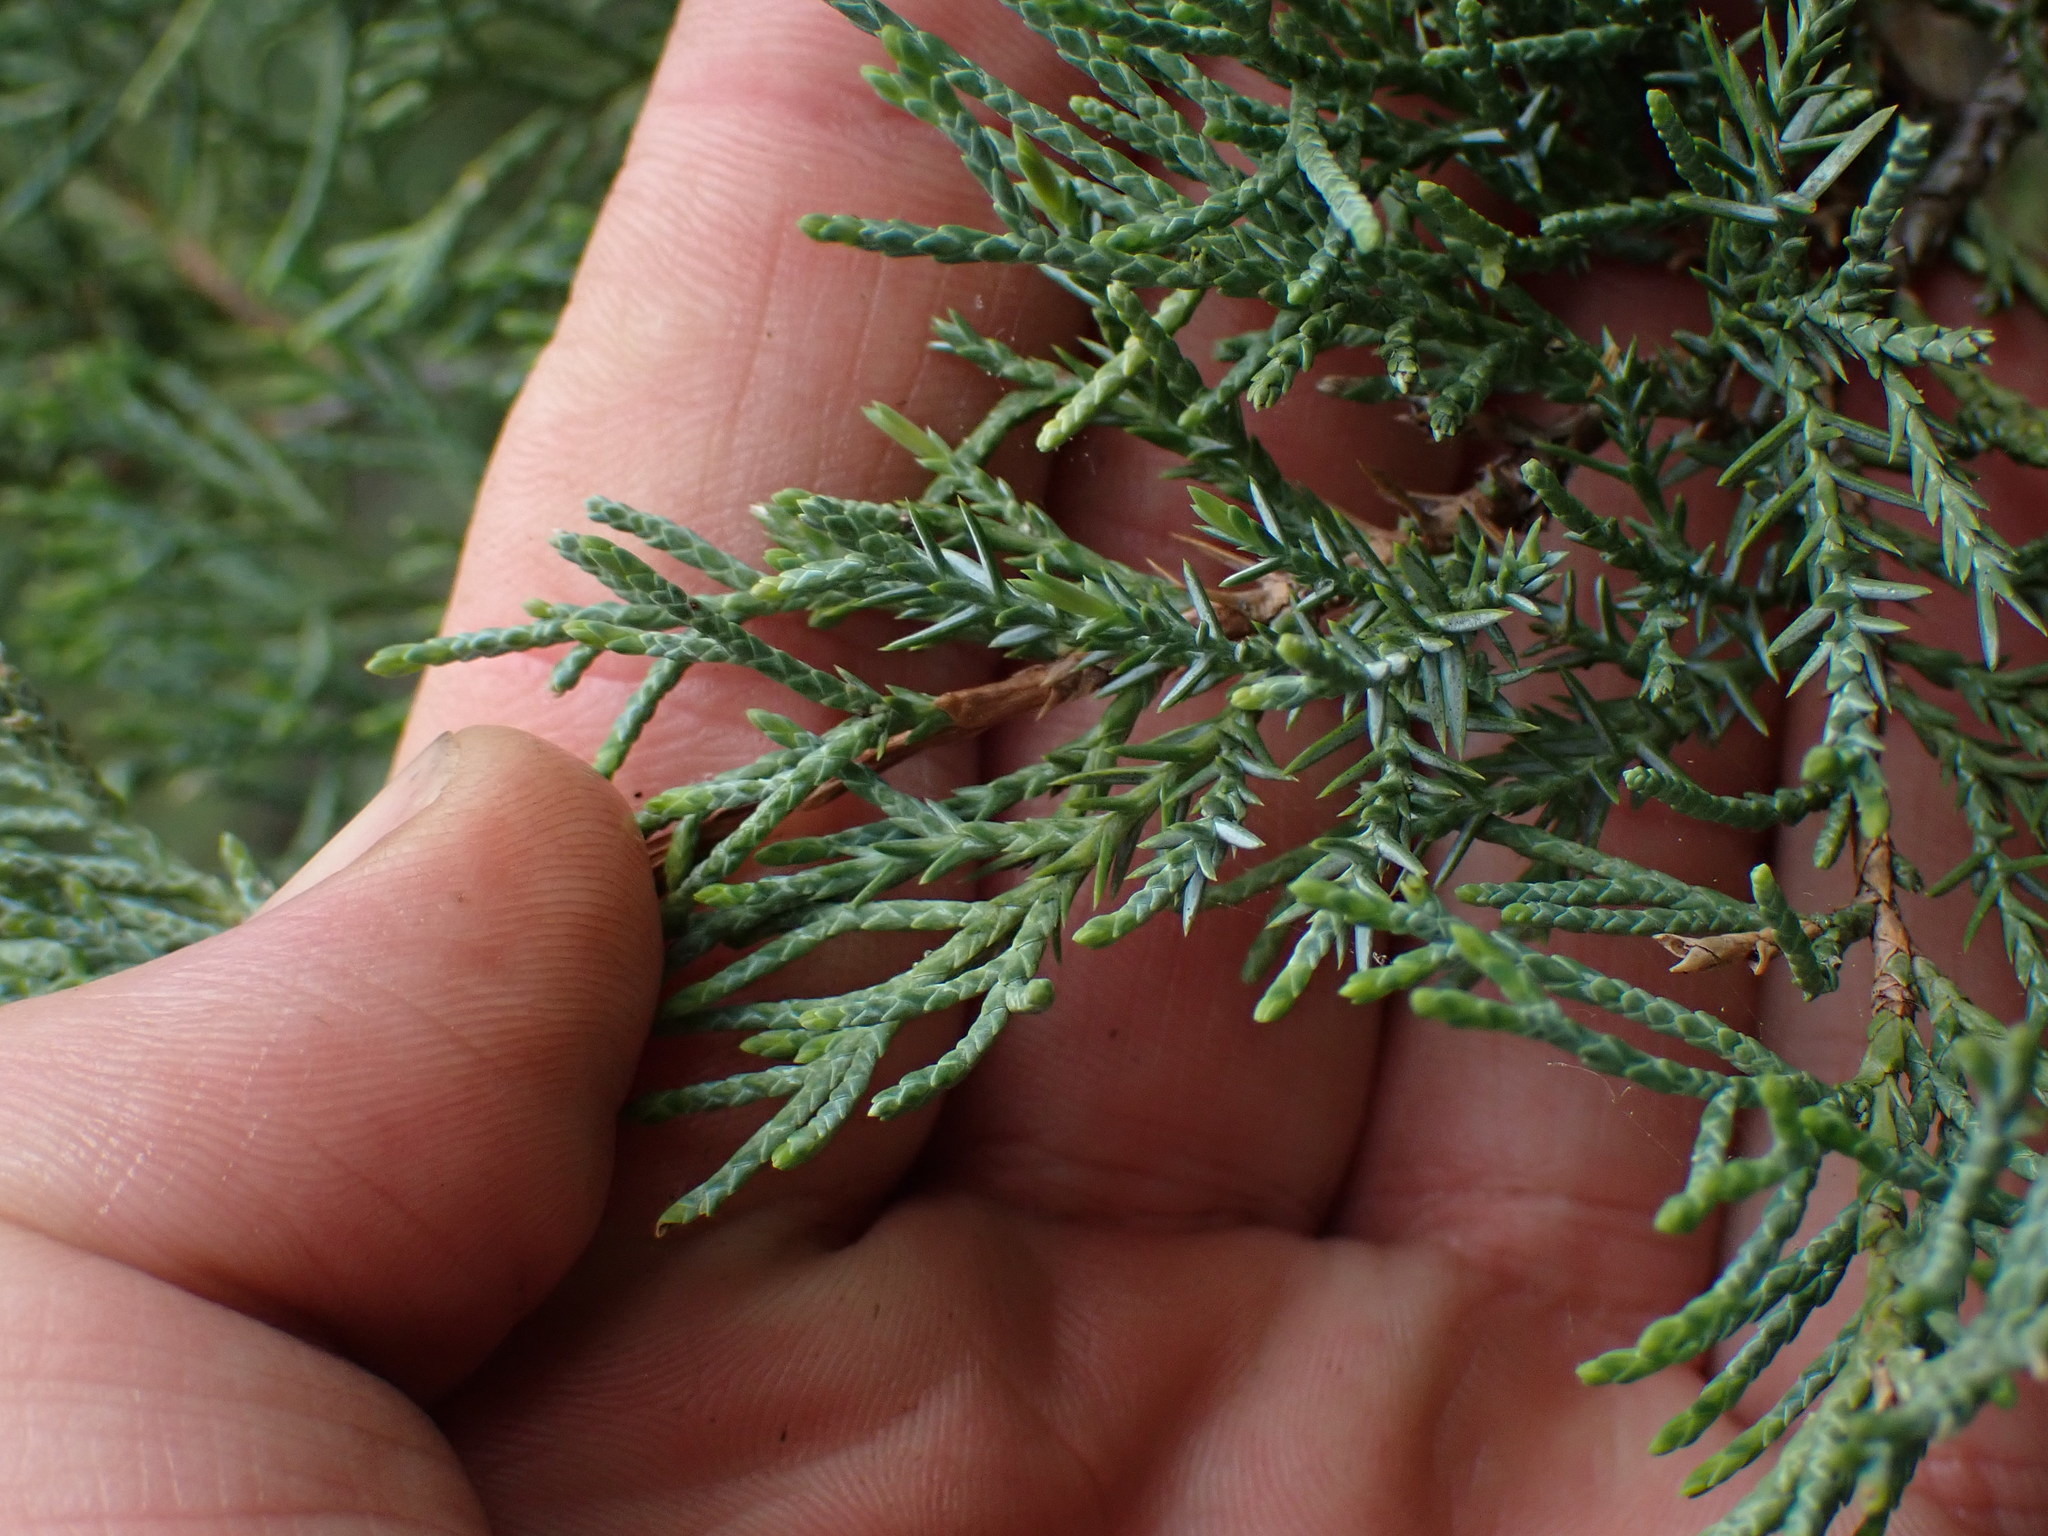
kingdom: Plantae
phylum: Tracheophyta
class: Pinopsida
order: Pinales
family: Cupressaceae
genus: Juniperus
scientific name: Juniperus scopulorum
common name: Rocky mountain juniper
